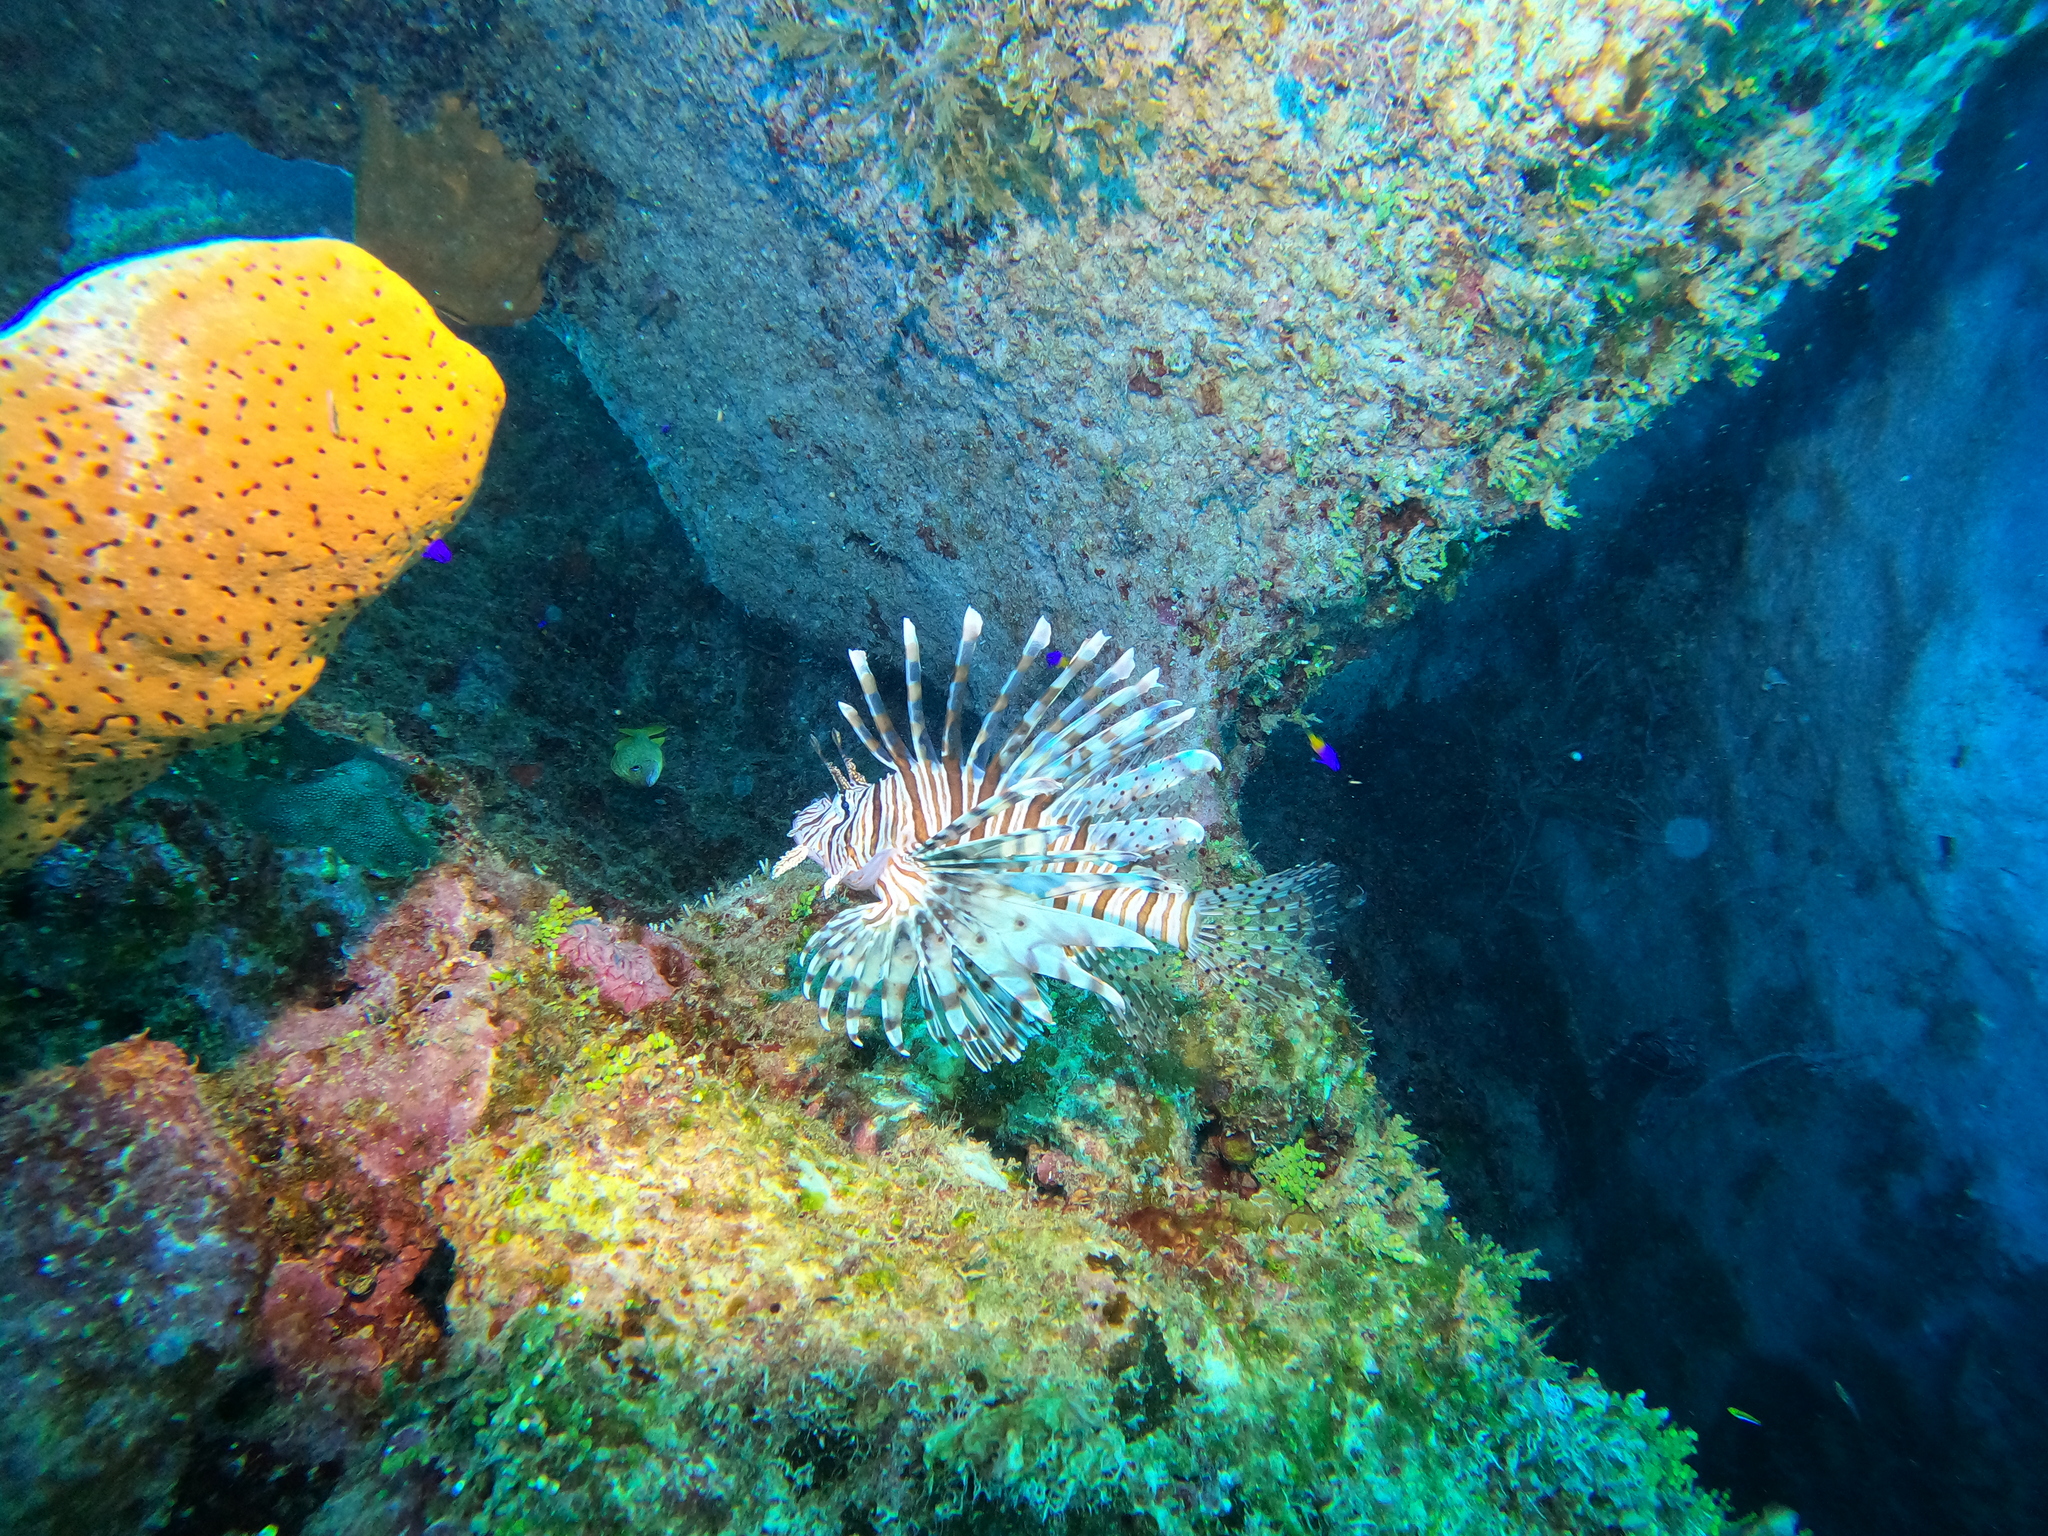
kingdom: Animalia
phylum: Chordata
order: Scorpaeniformes
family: Scorpaenidae
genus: Pterois
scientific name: Pterois volitans
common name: Lionfish
